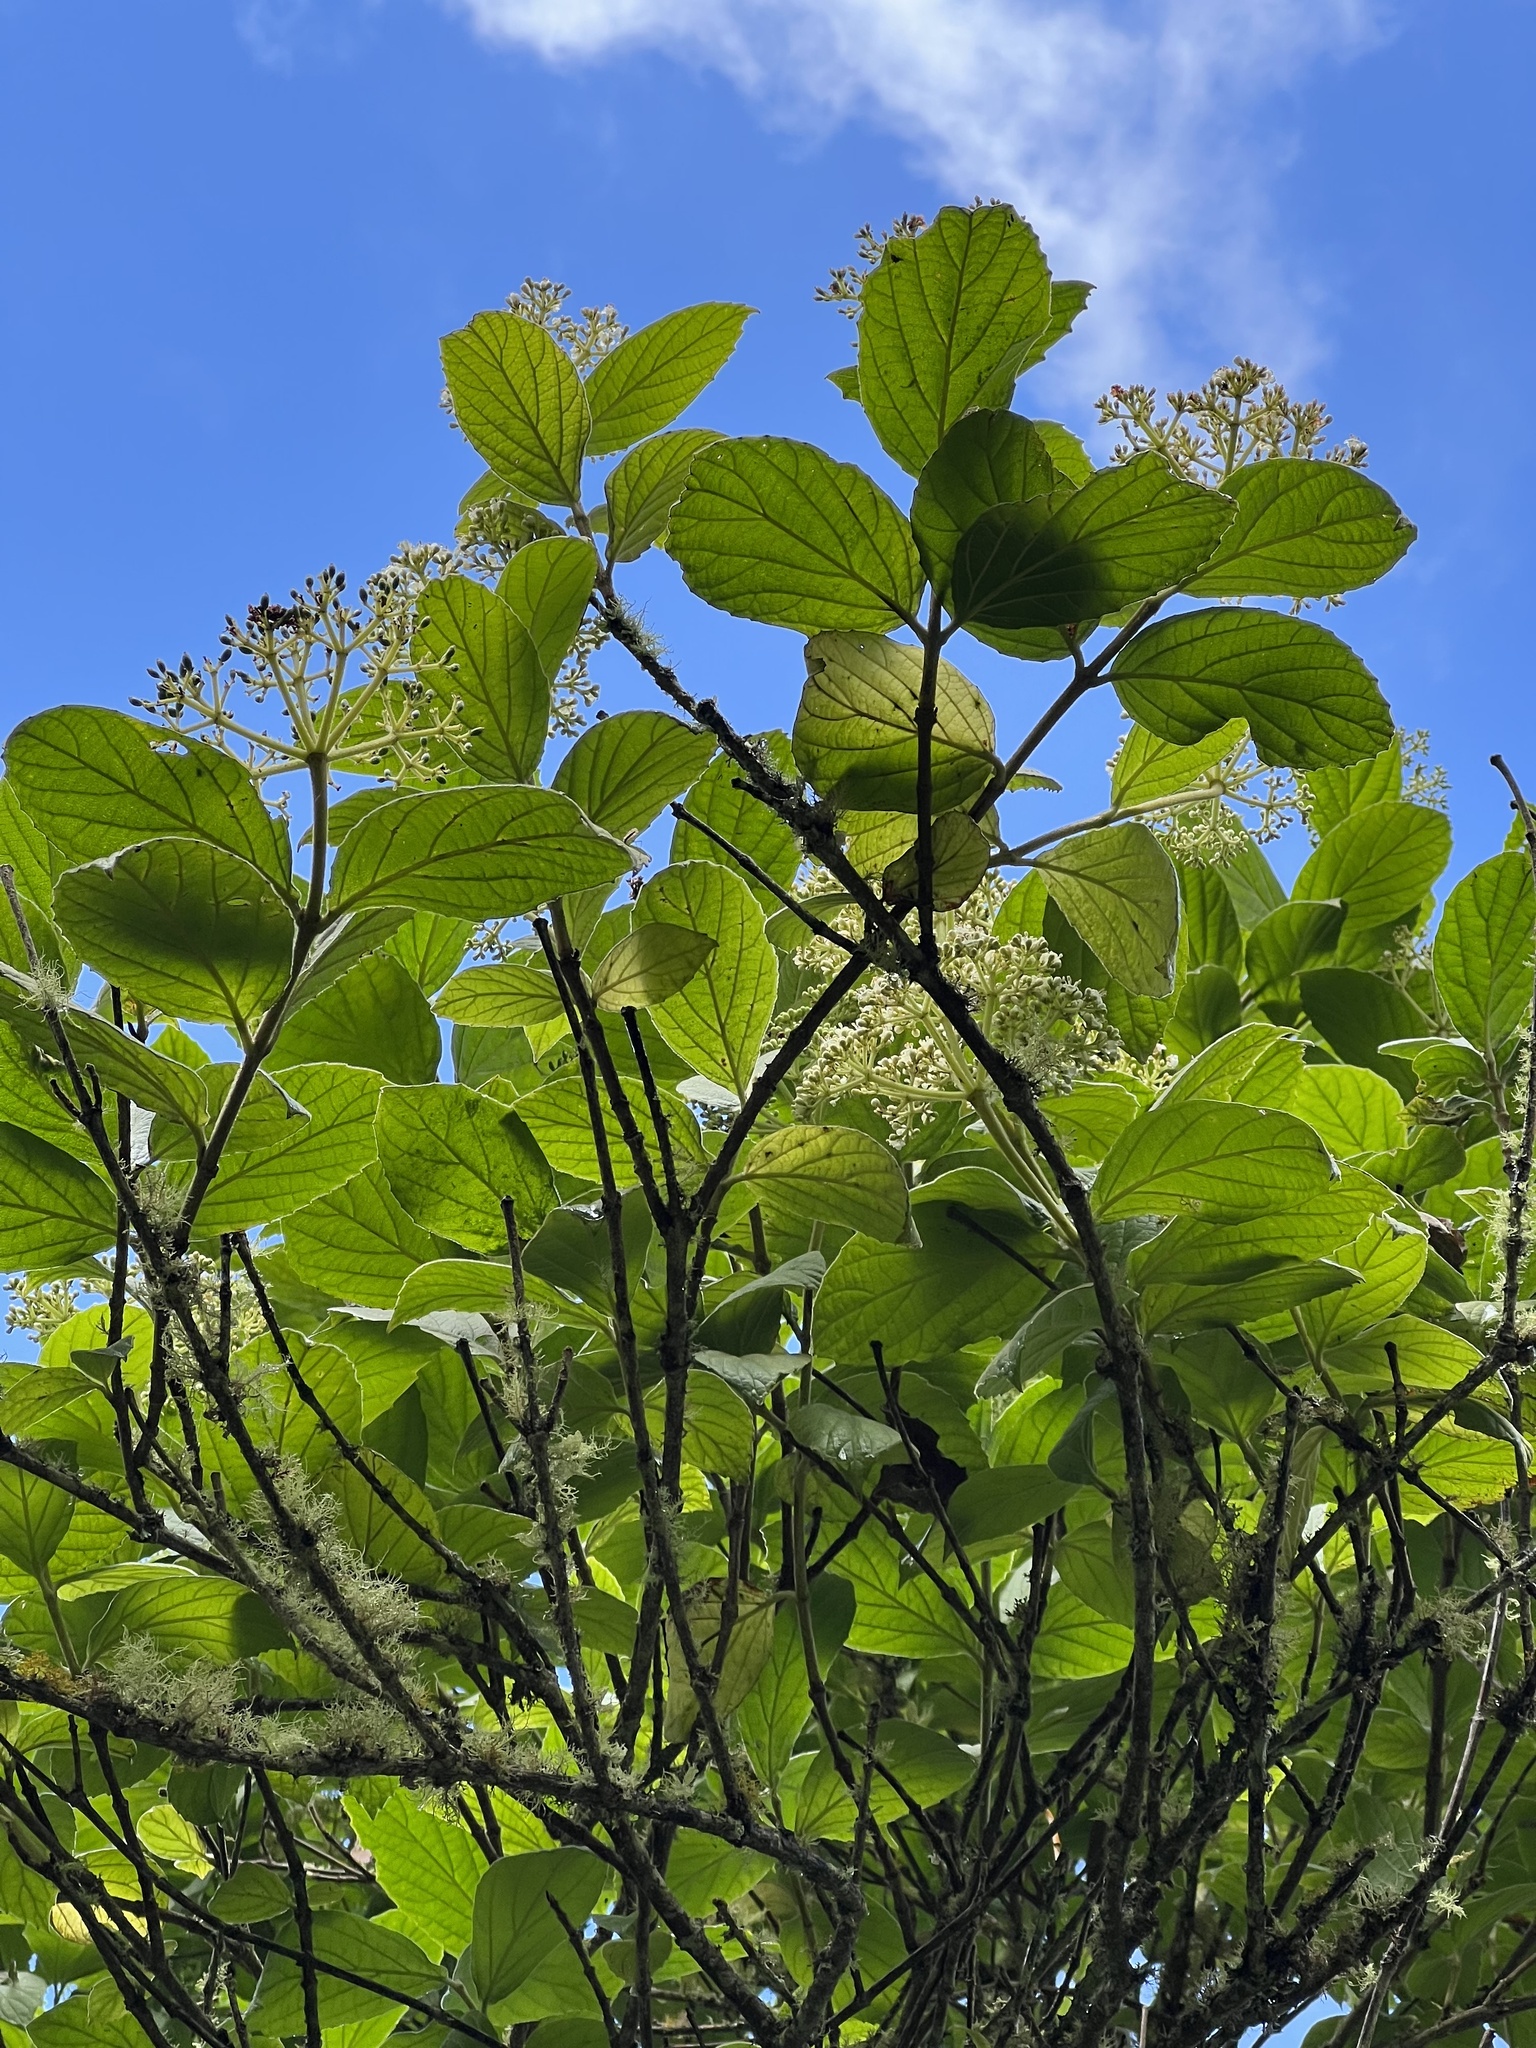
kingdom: Plantae
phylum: Tracheophyta
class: Magnoliopsida
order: Dipsacales
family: Viburnaceae
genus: Viburnum
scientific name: Viburnum lasiophyllum
